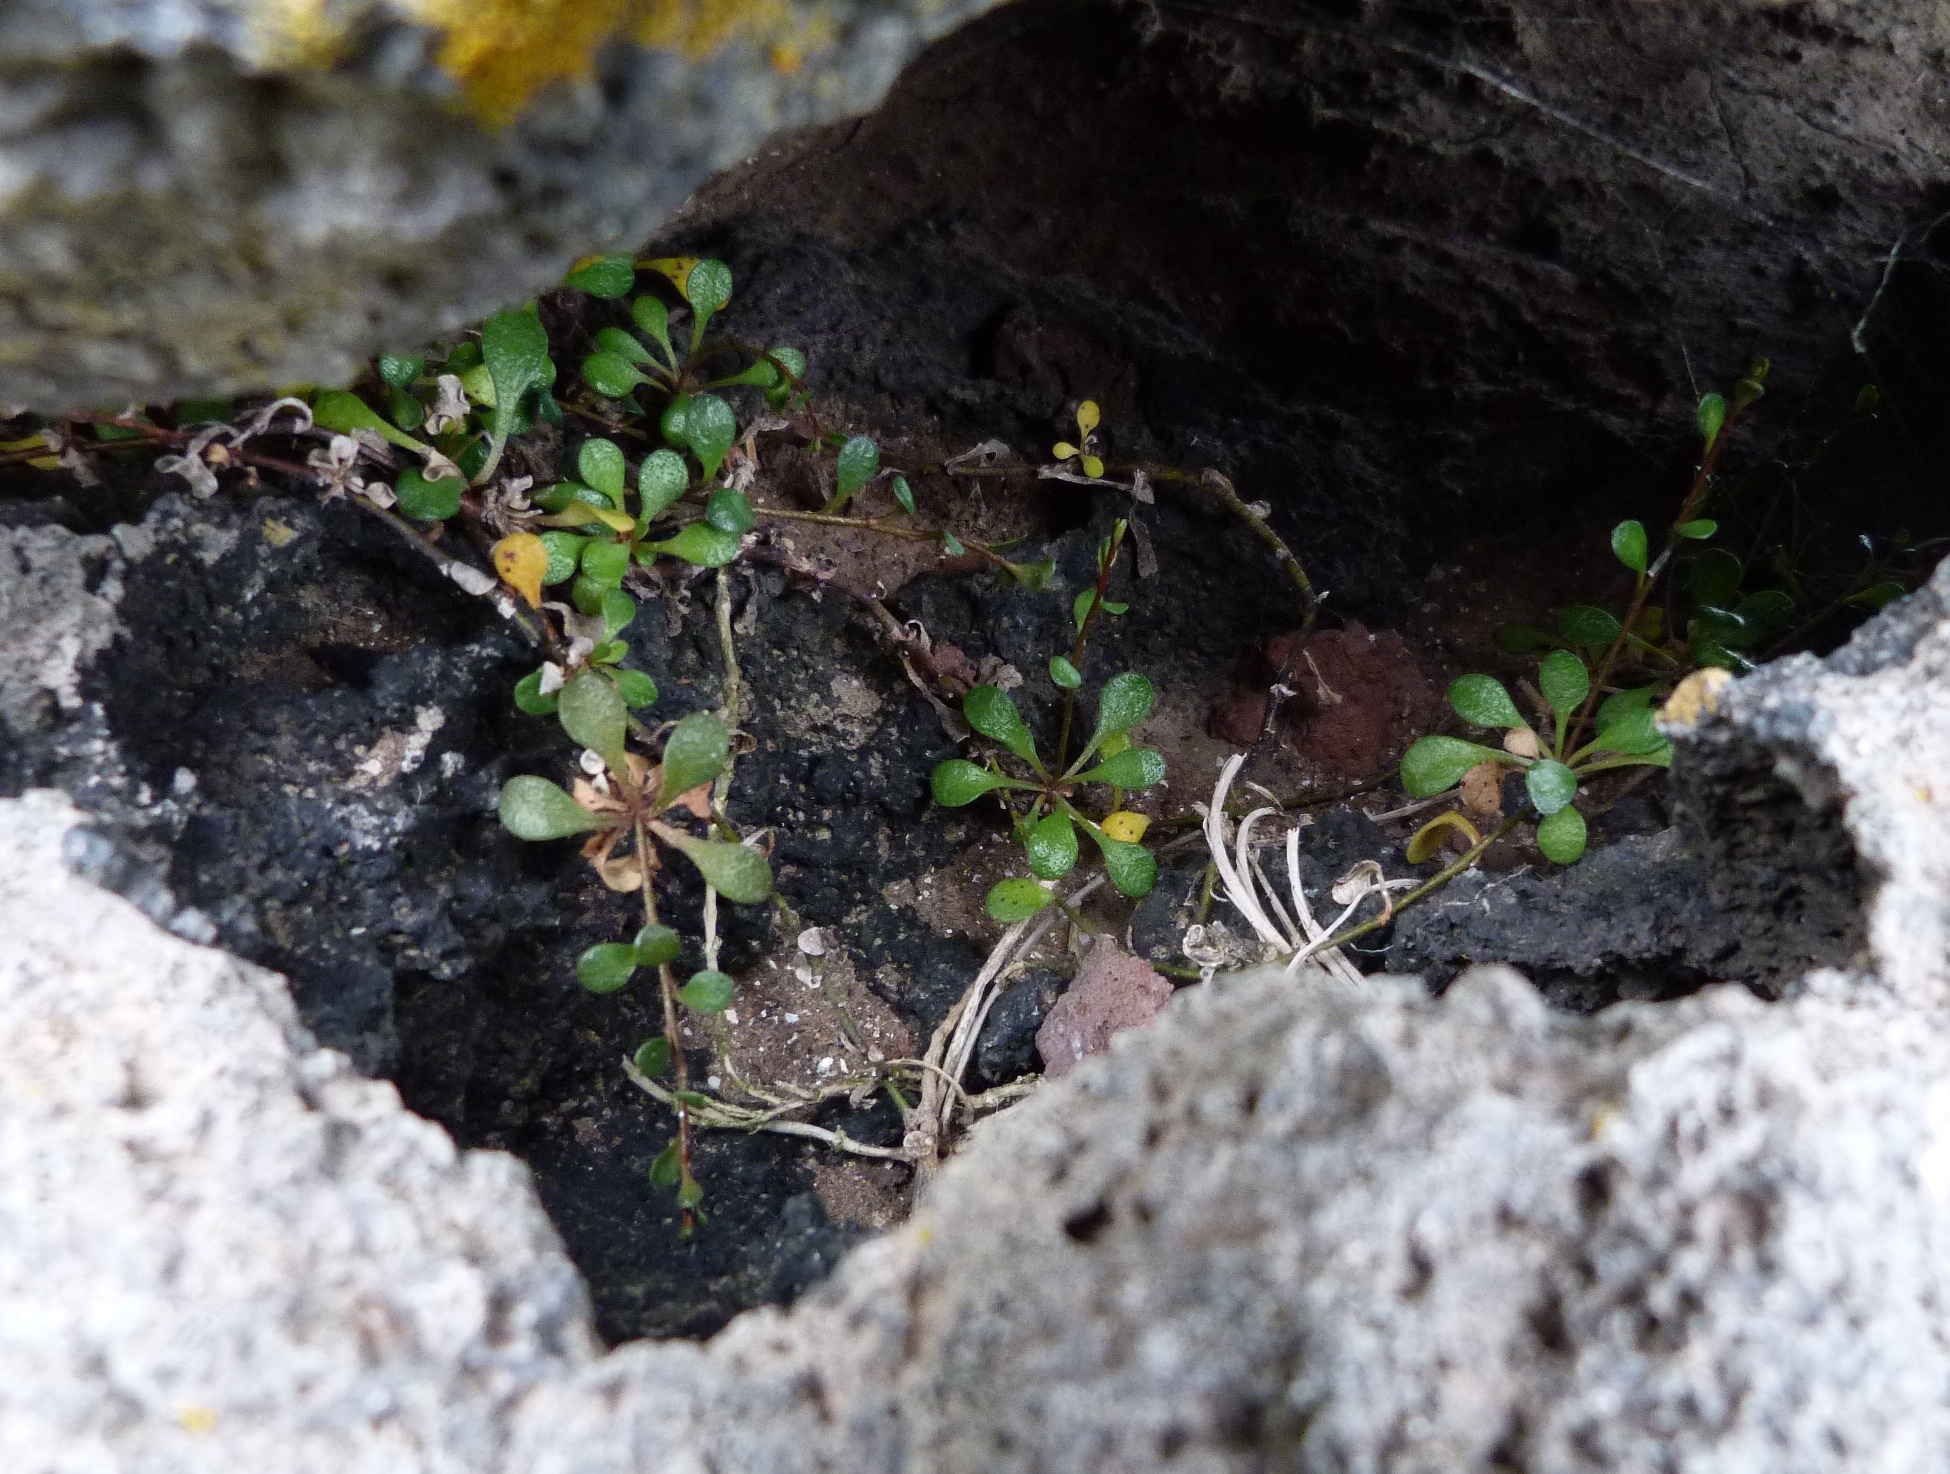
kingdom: Plantae
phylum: Tracheophyta
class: Magnoliopsida
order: Ericales
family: Primulaceae
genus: Samolus
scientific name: Samolus repens
